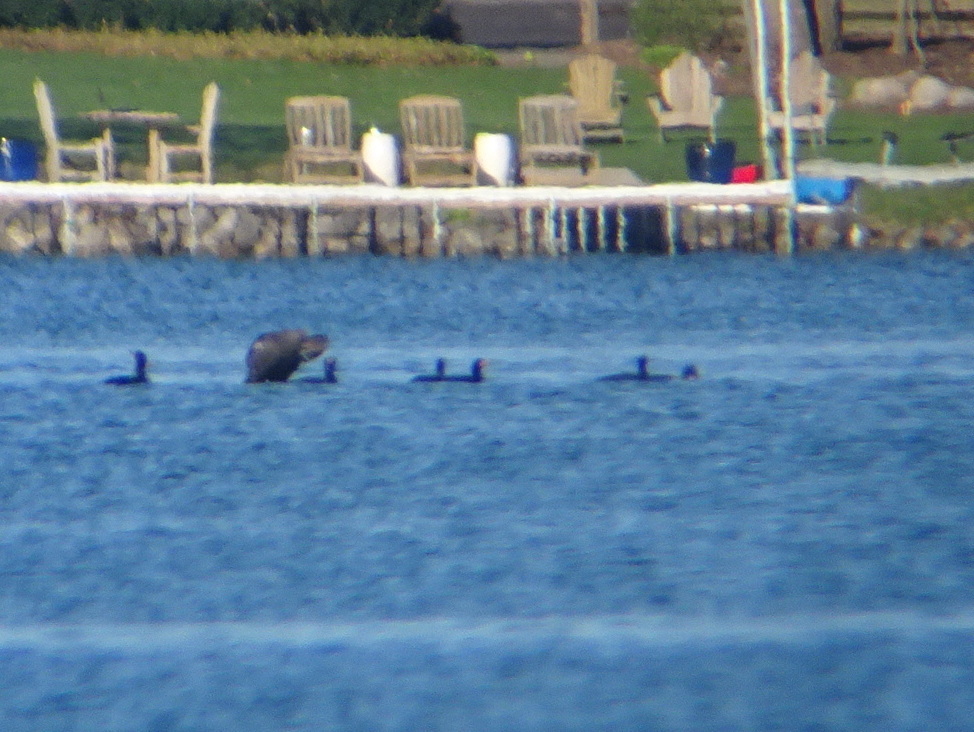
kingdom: Animalia
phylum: Chordata
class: Aves
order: Suliformes
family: Phalacrocoracidae
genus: Phalacrocorax
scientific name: Phalacrocorax auritus
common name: Double-crested cormorant
